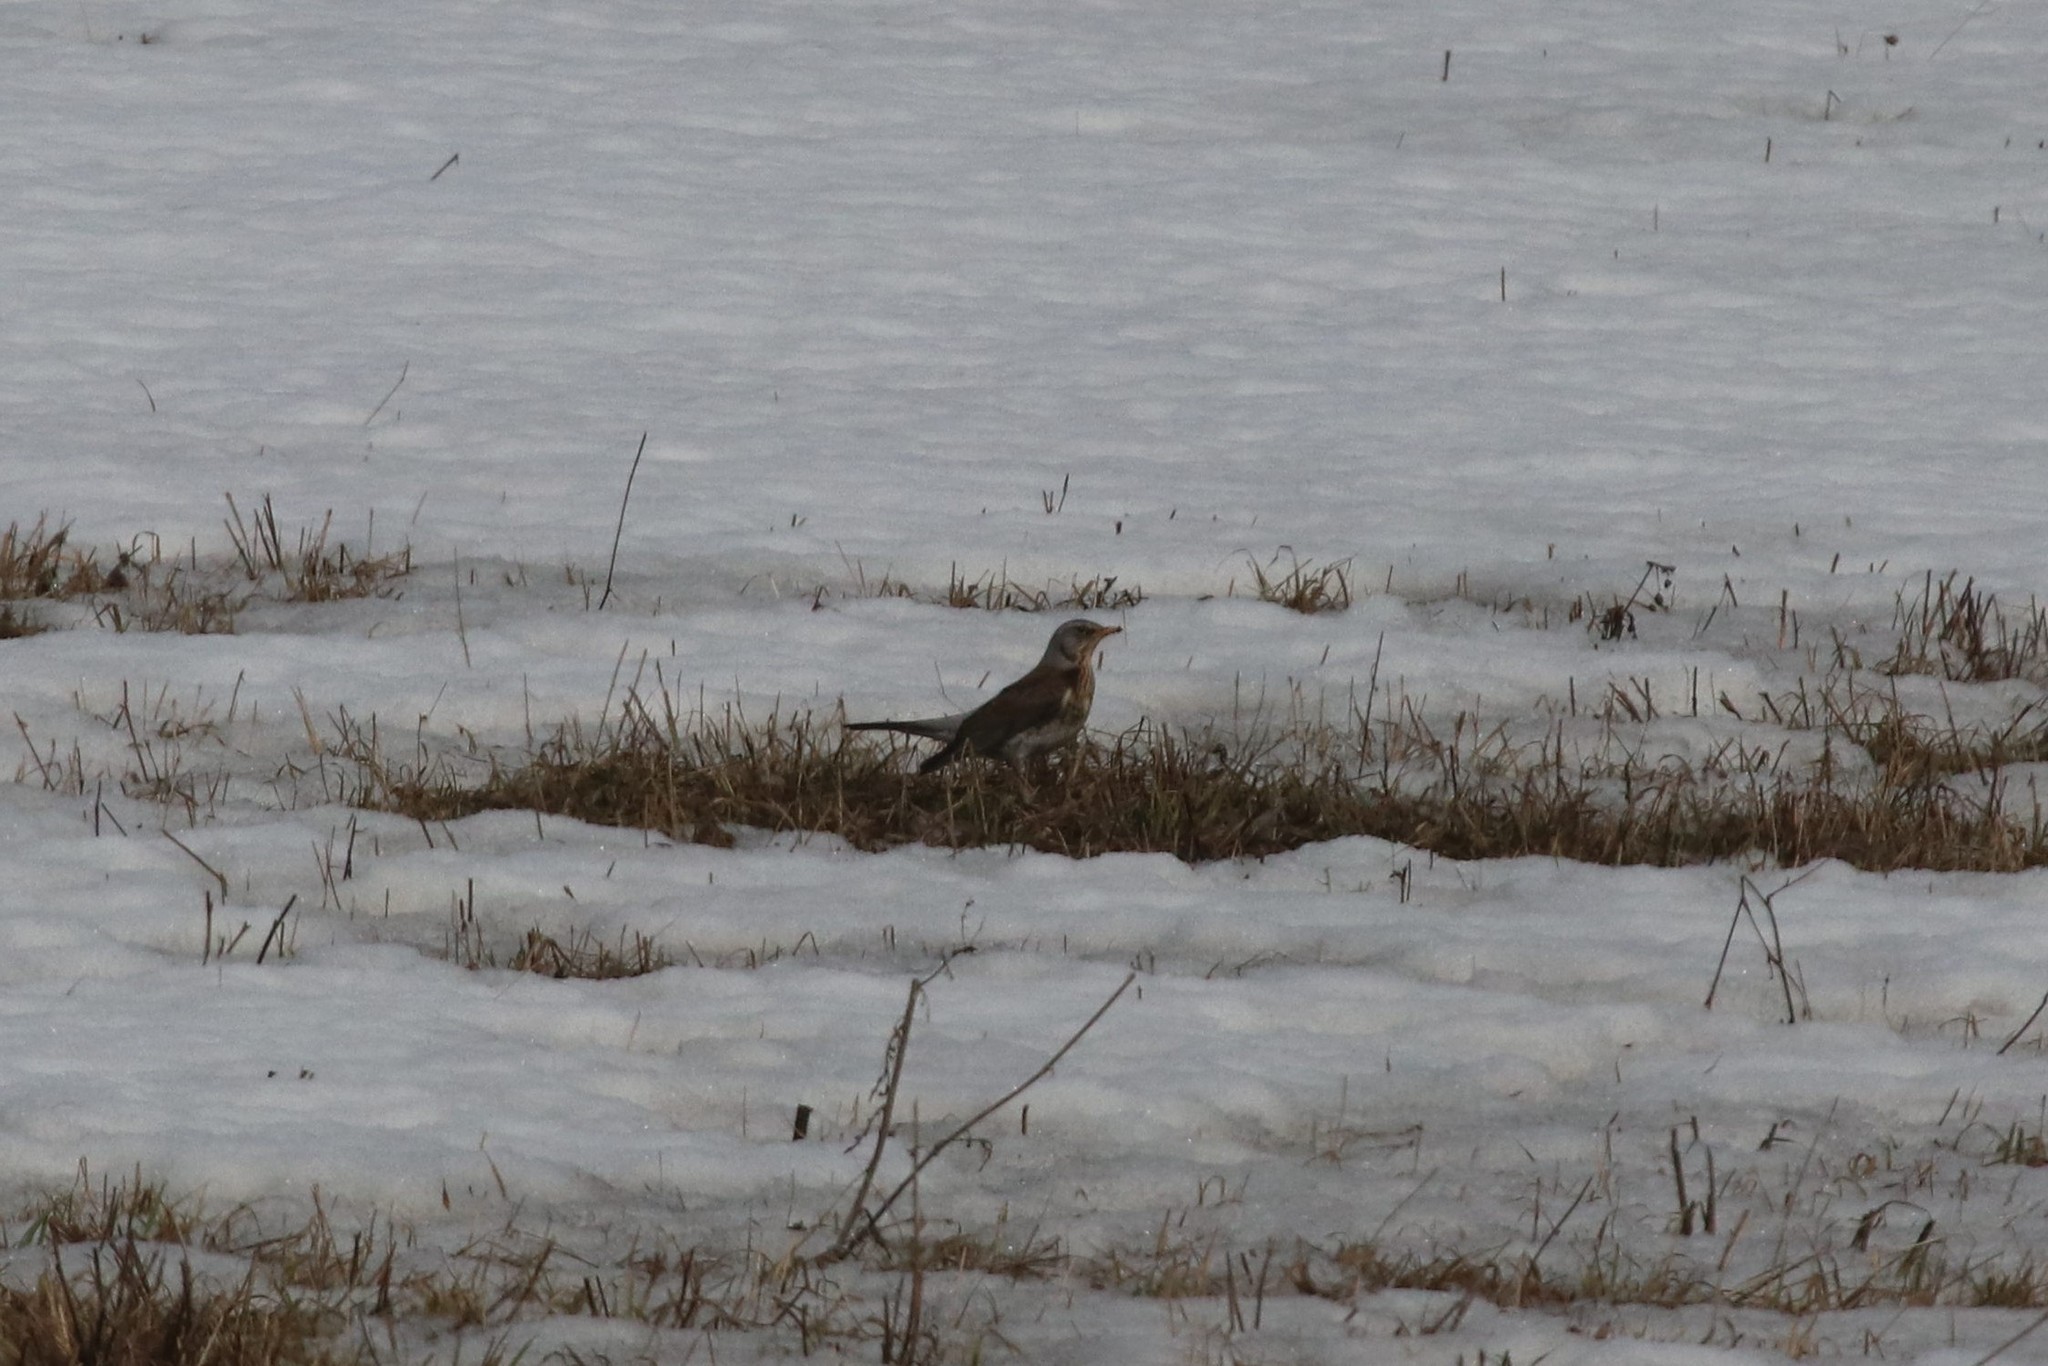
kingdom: Animalia
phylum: Chordata
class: Aves
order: Passeriformes
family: Turdidae
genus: Turdus
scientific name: Turdus pilaris
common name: Fieldfare
